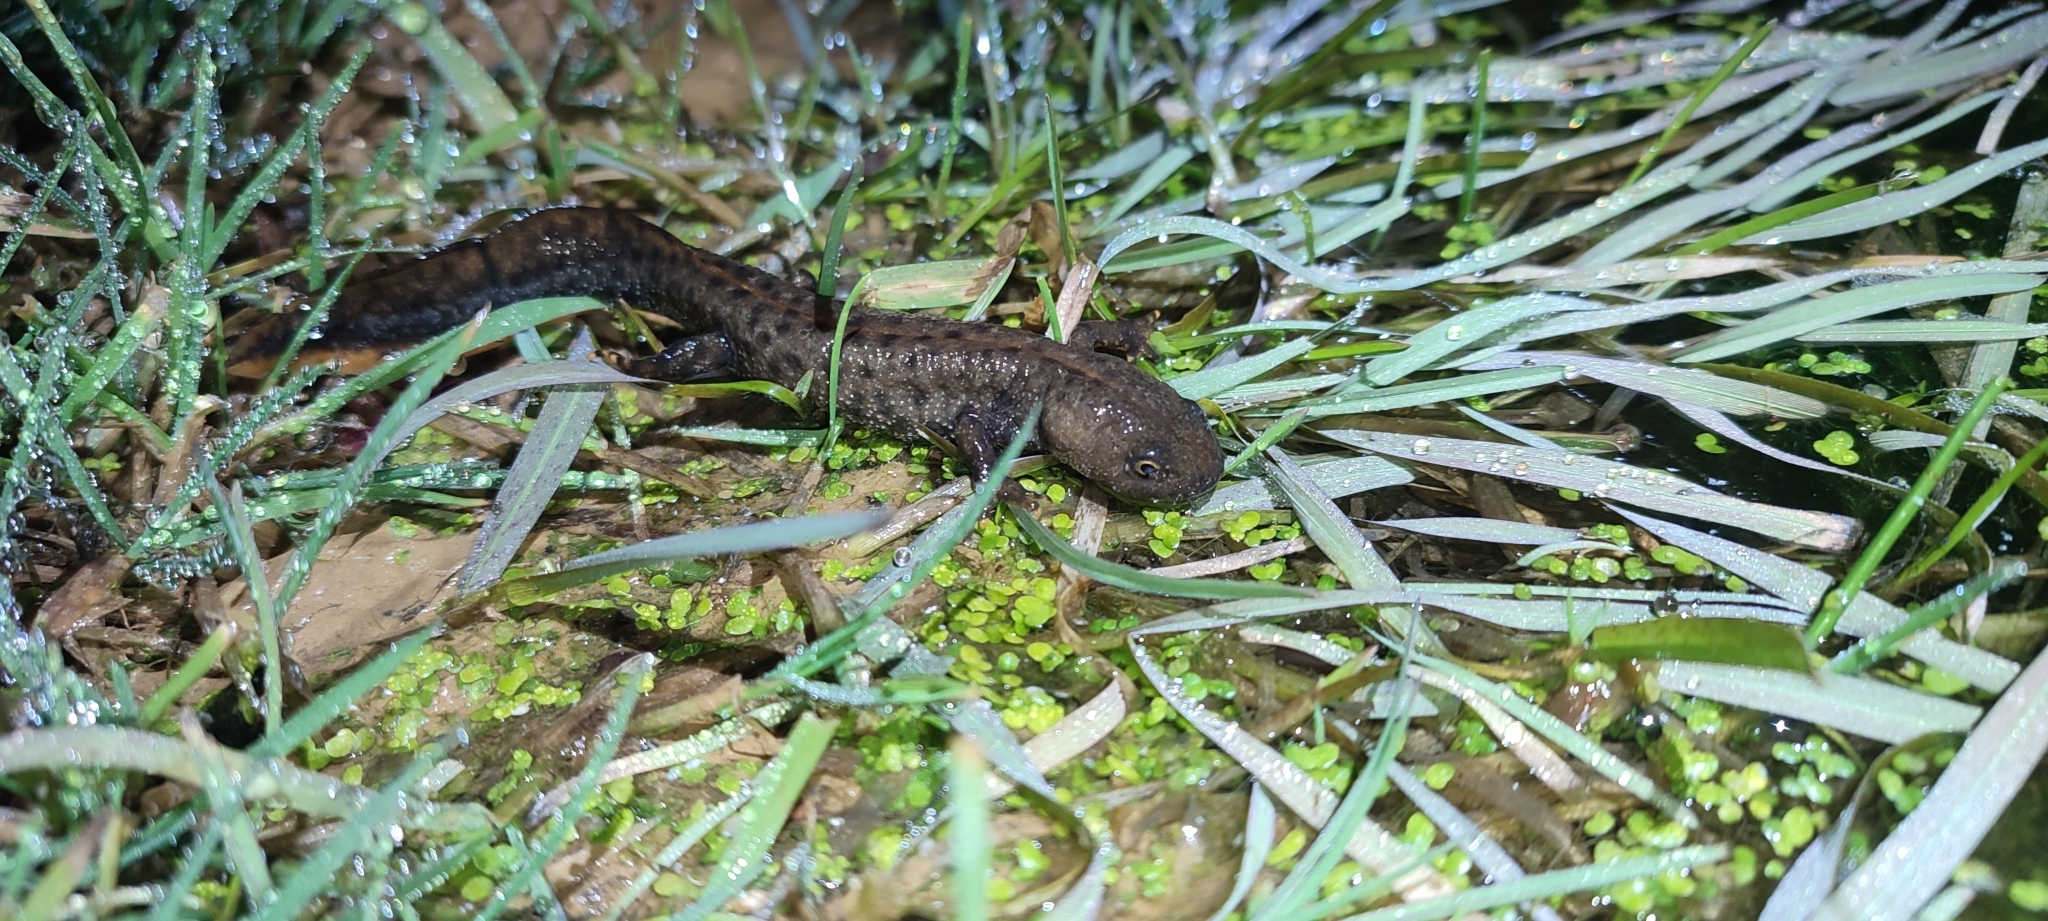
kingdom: Animalia
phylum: Chordata
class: Amphibia
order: Caudata
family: Salamandridae
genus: Triturus
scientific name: Triturus cristatus
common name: Crested newt
